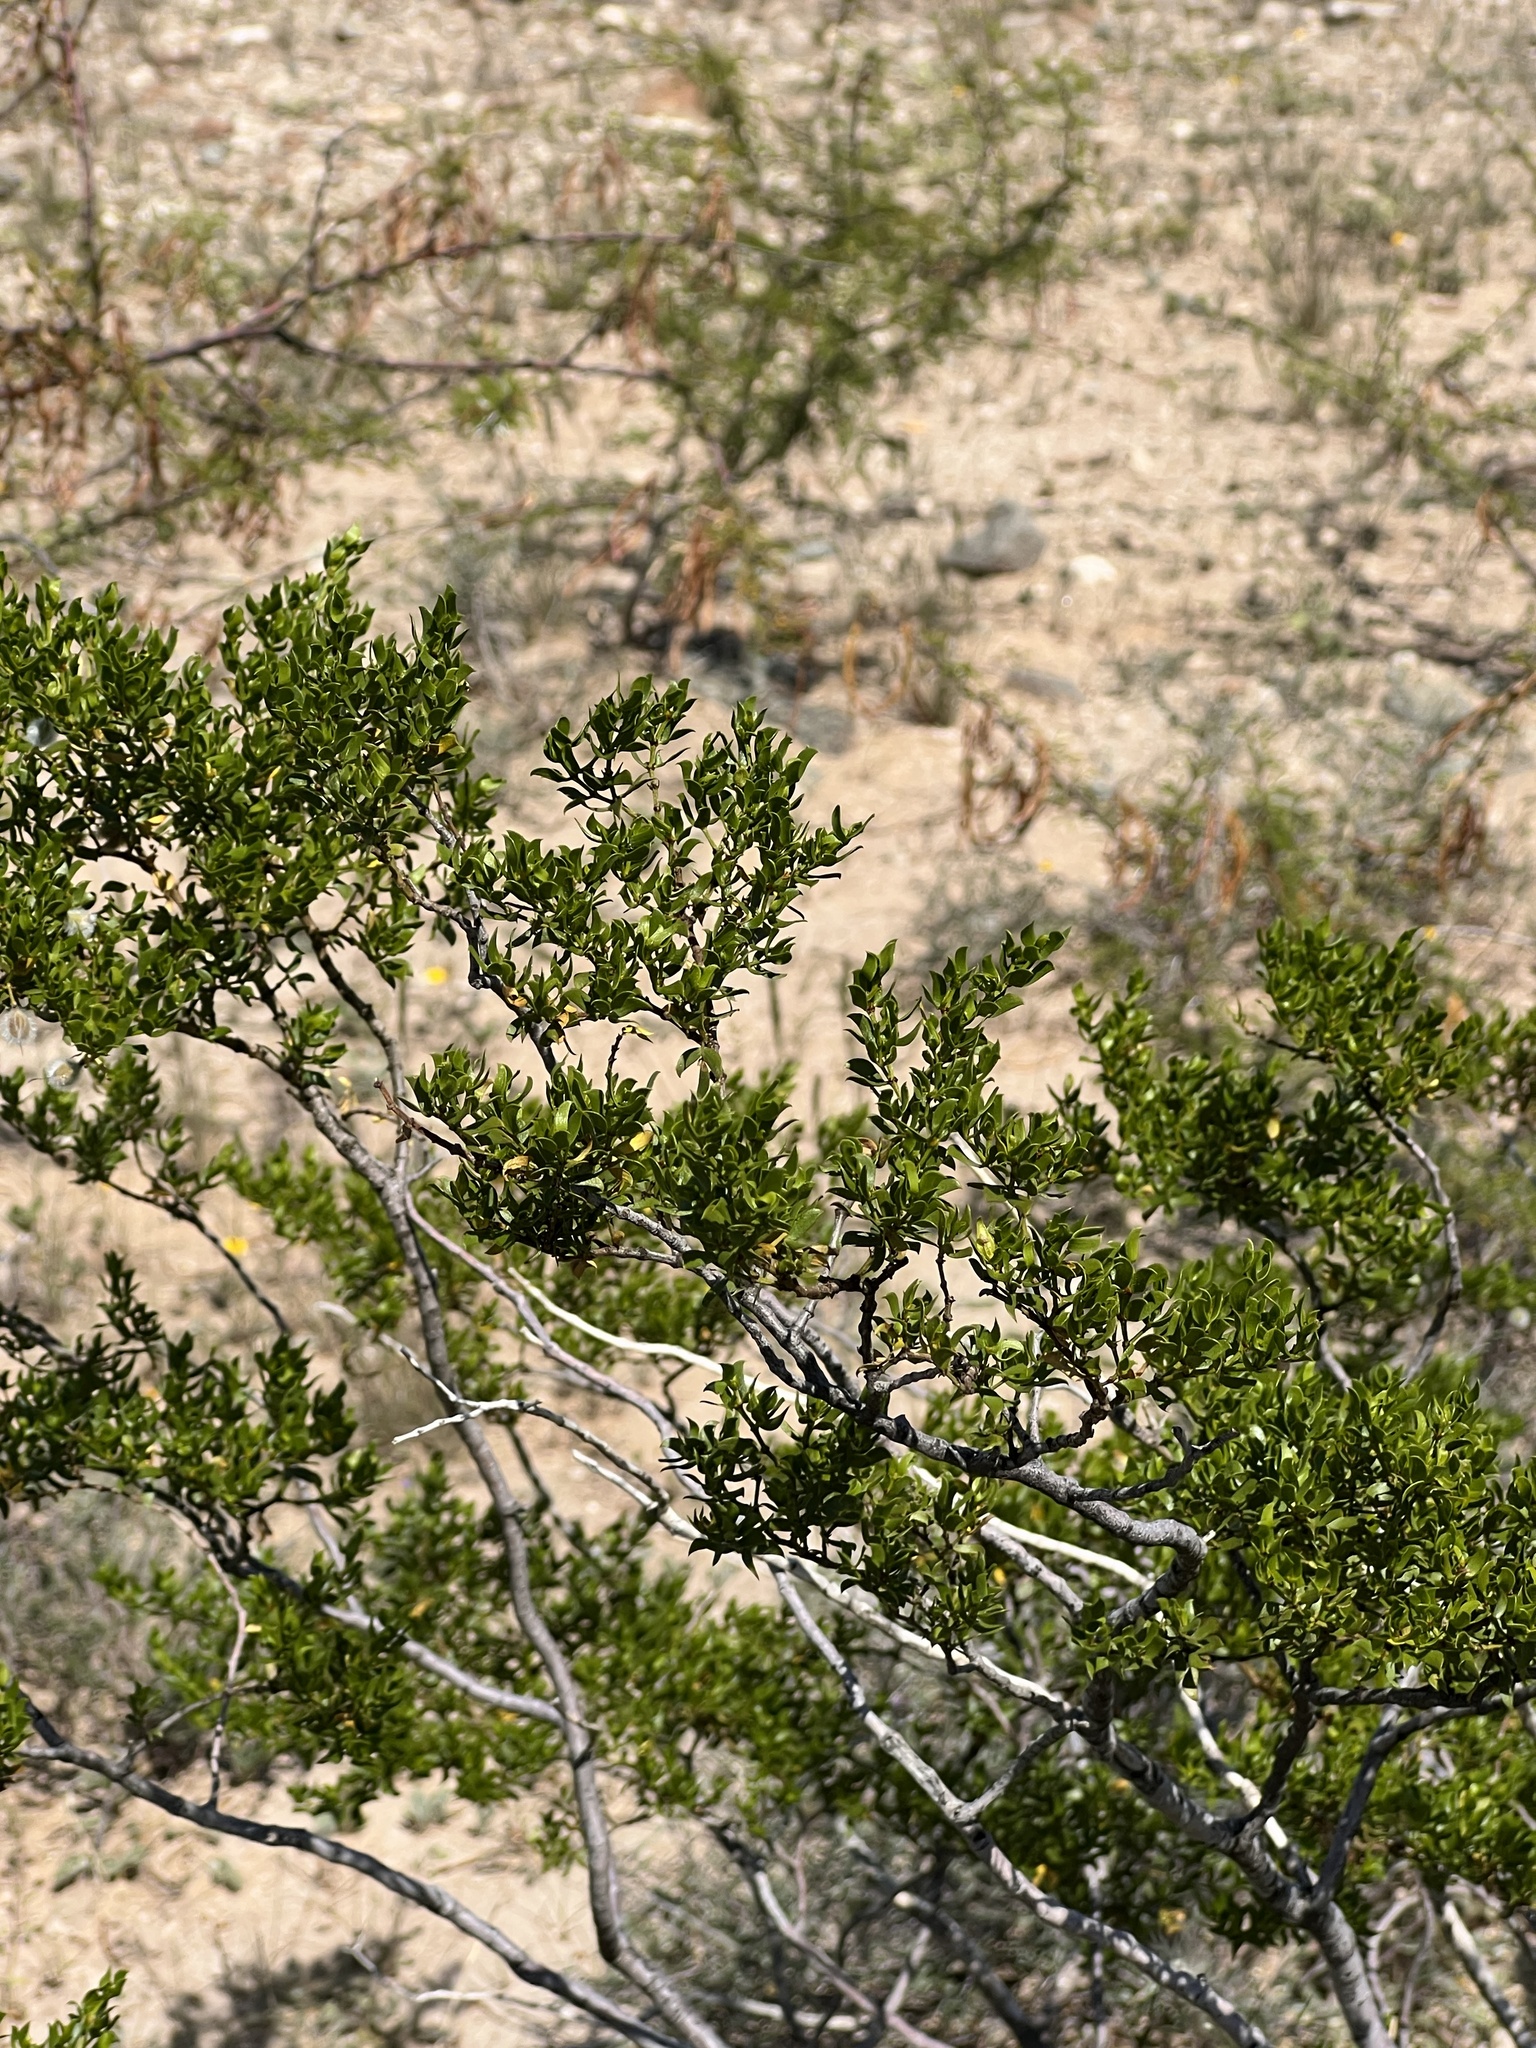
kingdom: Plantae
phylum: Tracheophyta
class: Magnoliopsida
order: Zygophyllales
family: Zygophyllaceae
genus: Larrea
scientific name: Larrea tridentata
